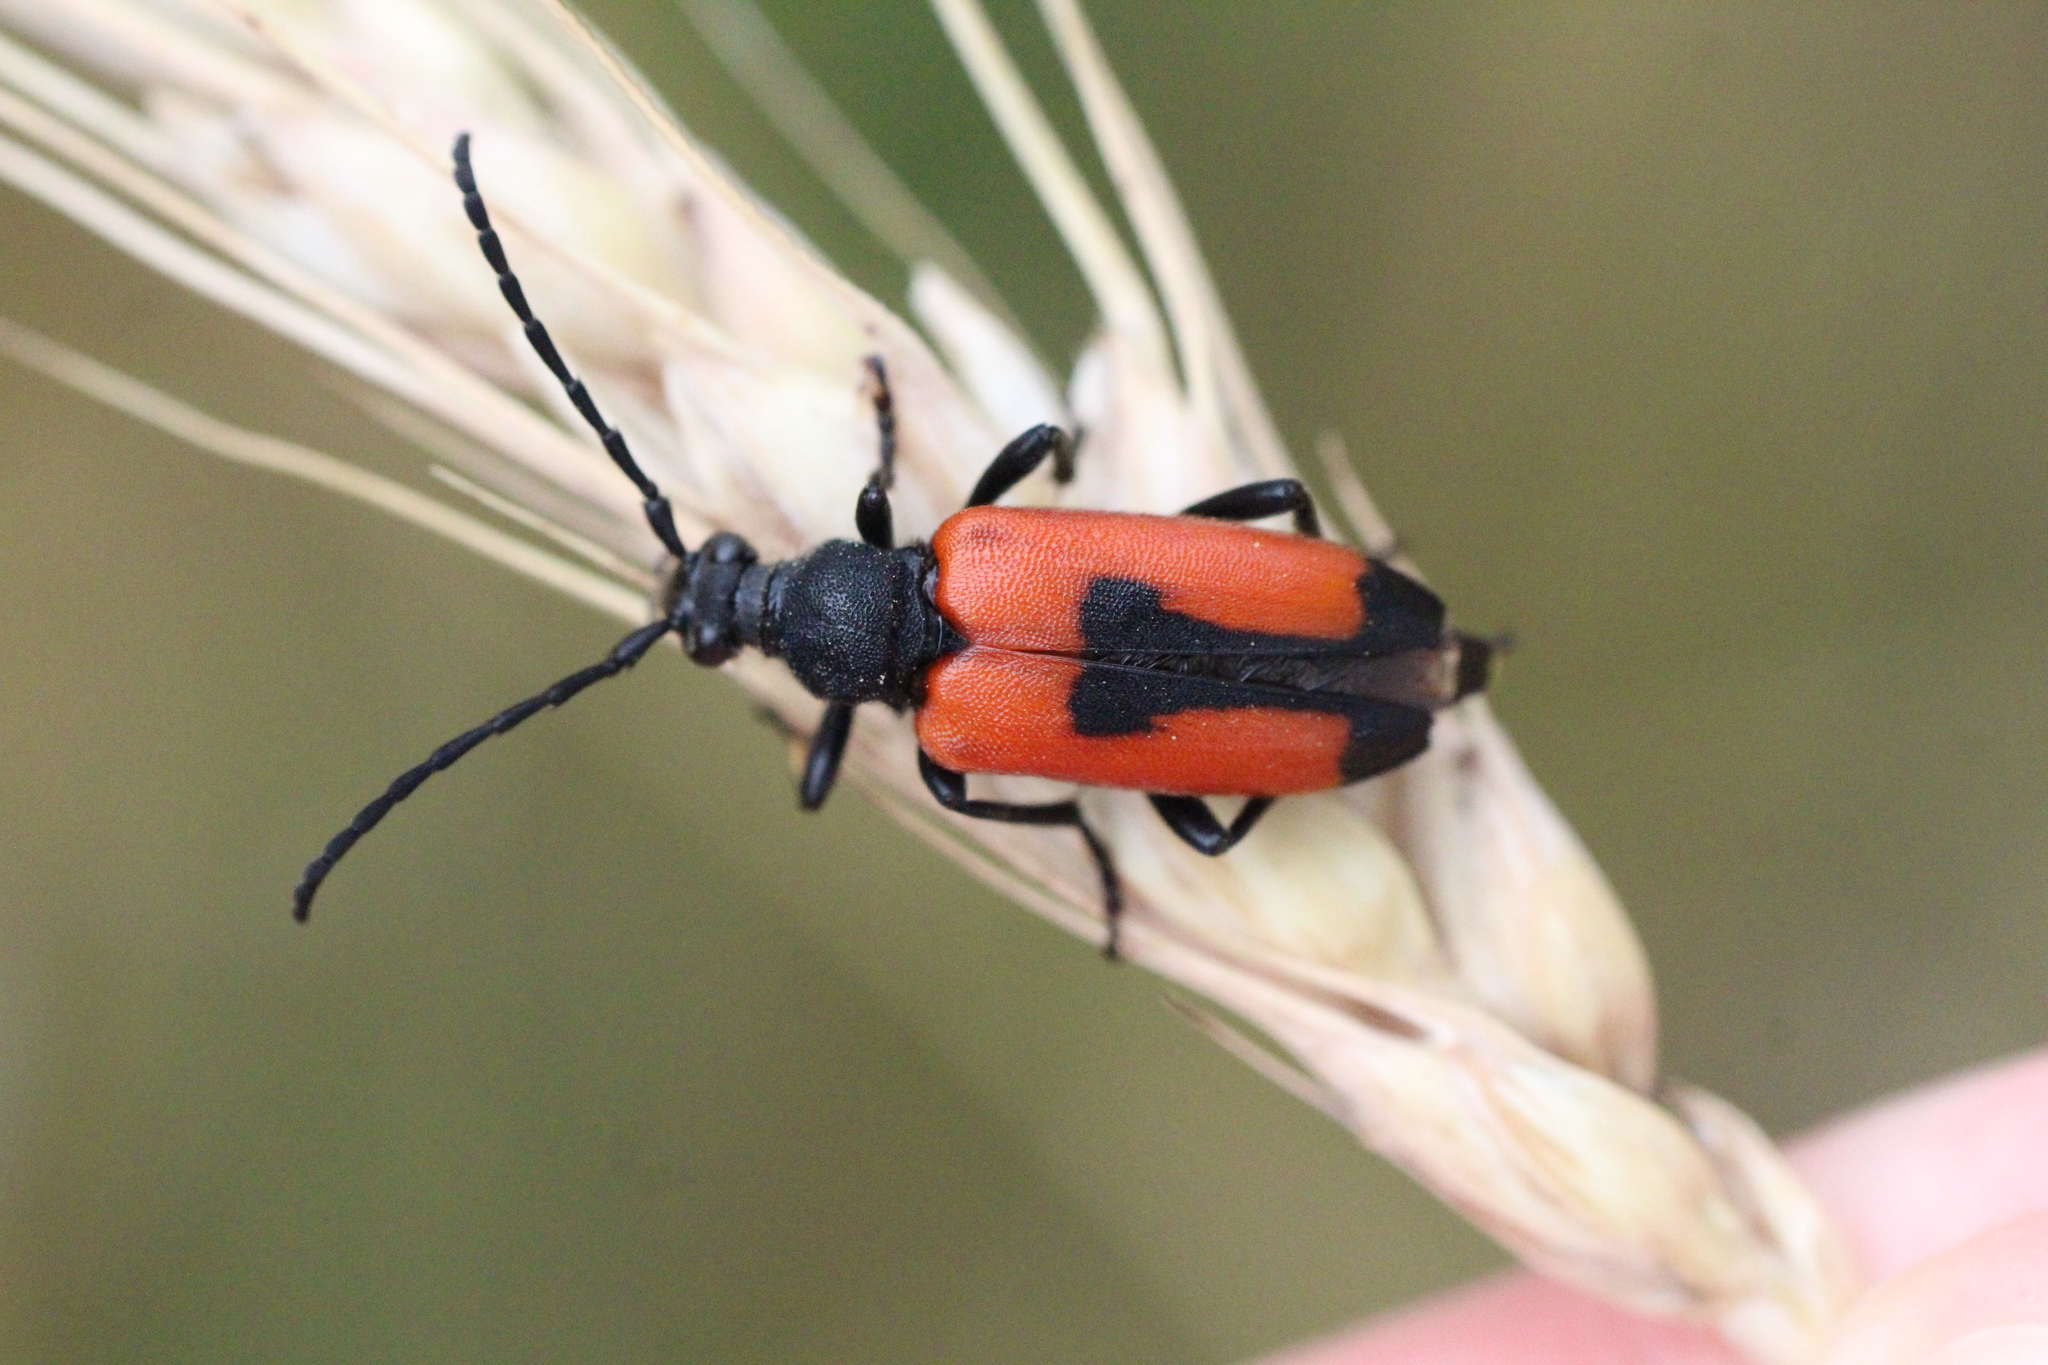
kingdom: Animalia
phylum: Arthropoda
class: Insecta
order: Coleoptera
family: Cerambycidae
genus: Stictoleptura
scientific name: Stictoleptura cordigera
